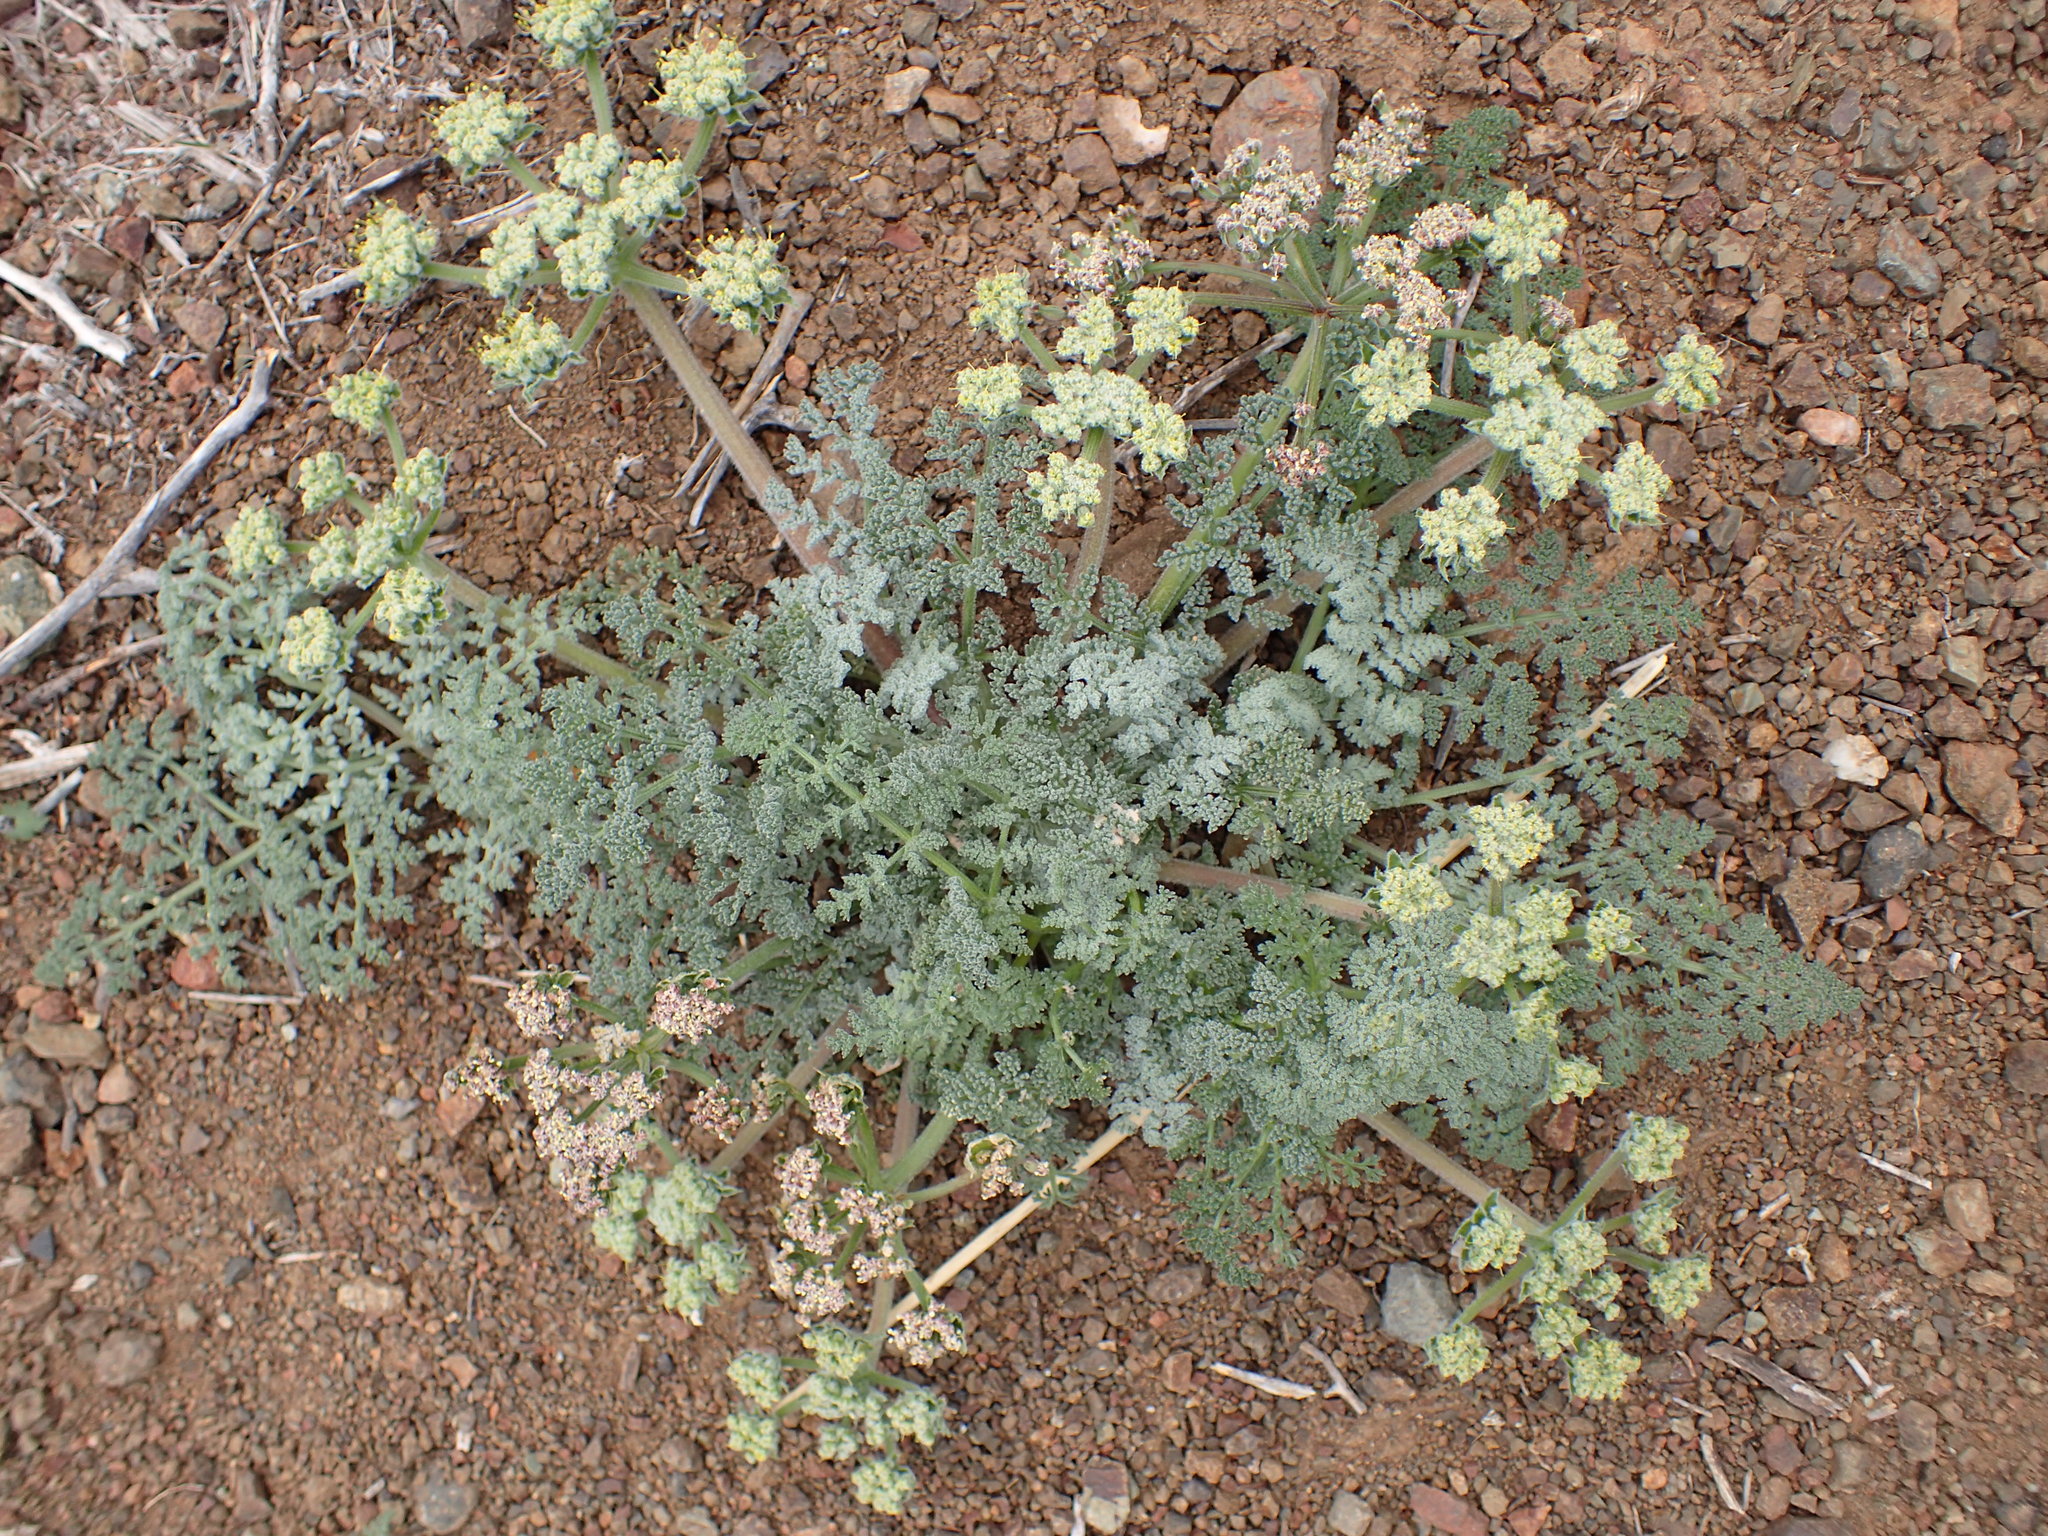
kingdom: Plantae
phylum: Tracheophyta
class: Magnoliopsida
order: Apiales
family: Apiaceae
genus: Lomatium
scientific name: Lomatium dasycarpum
